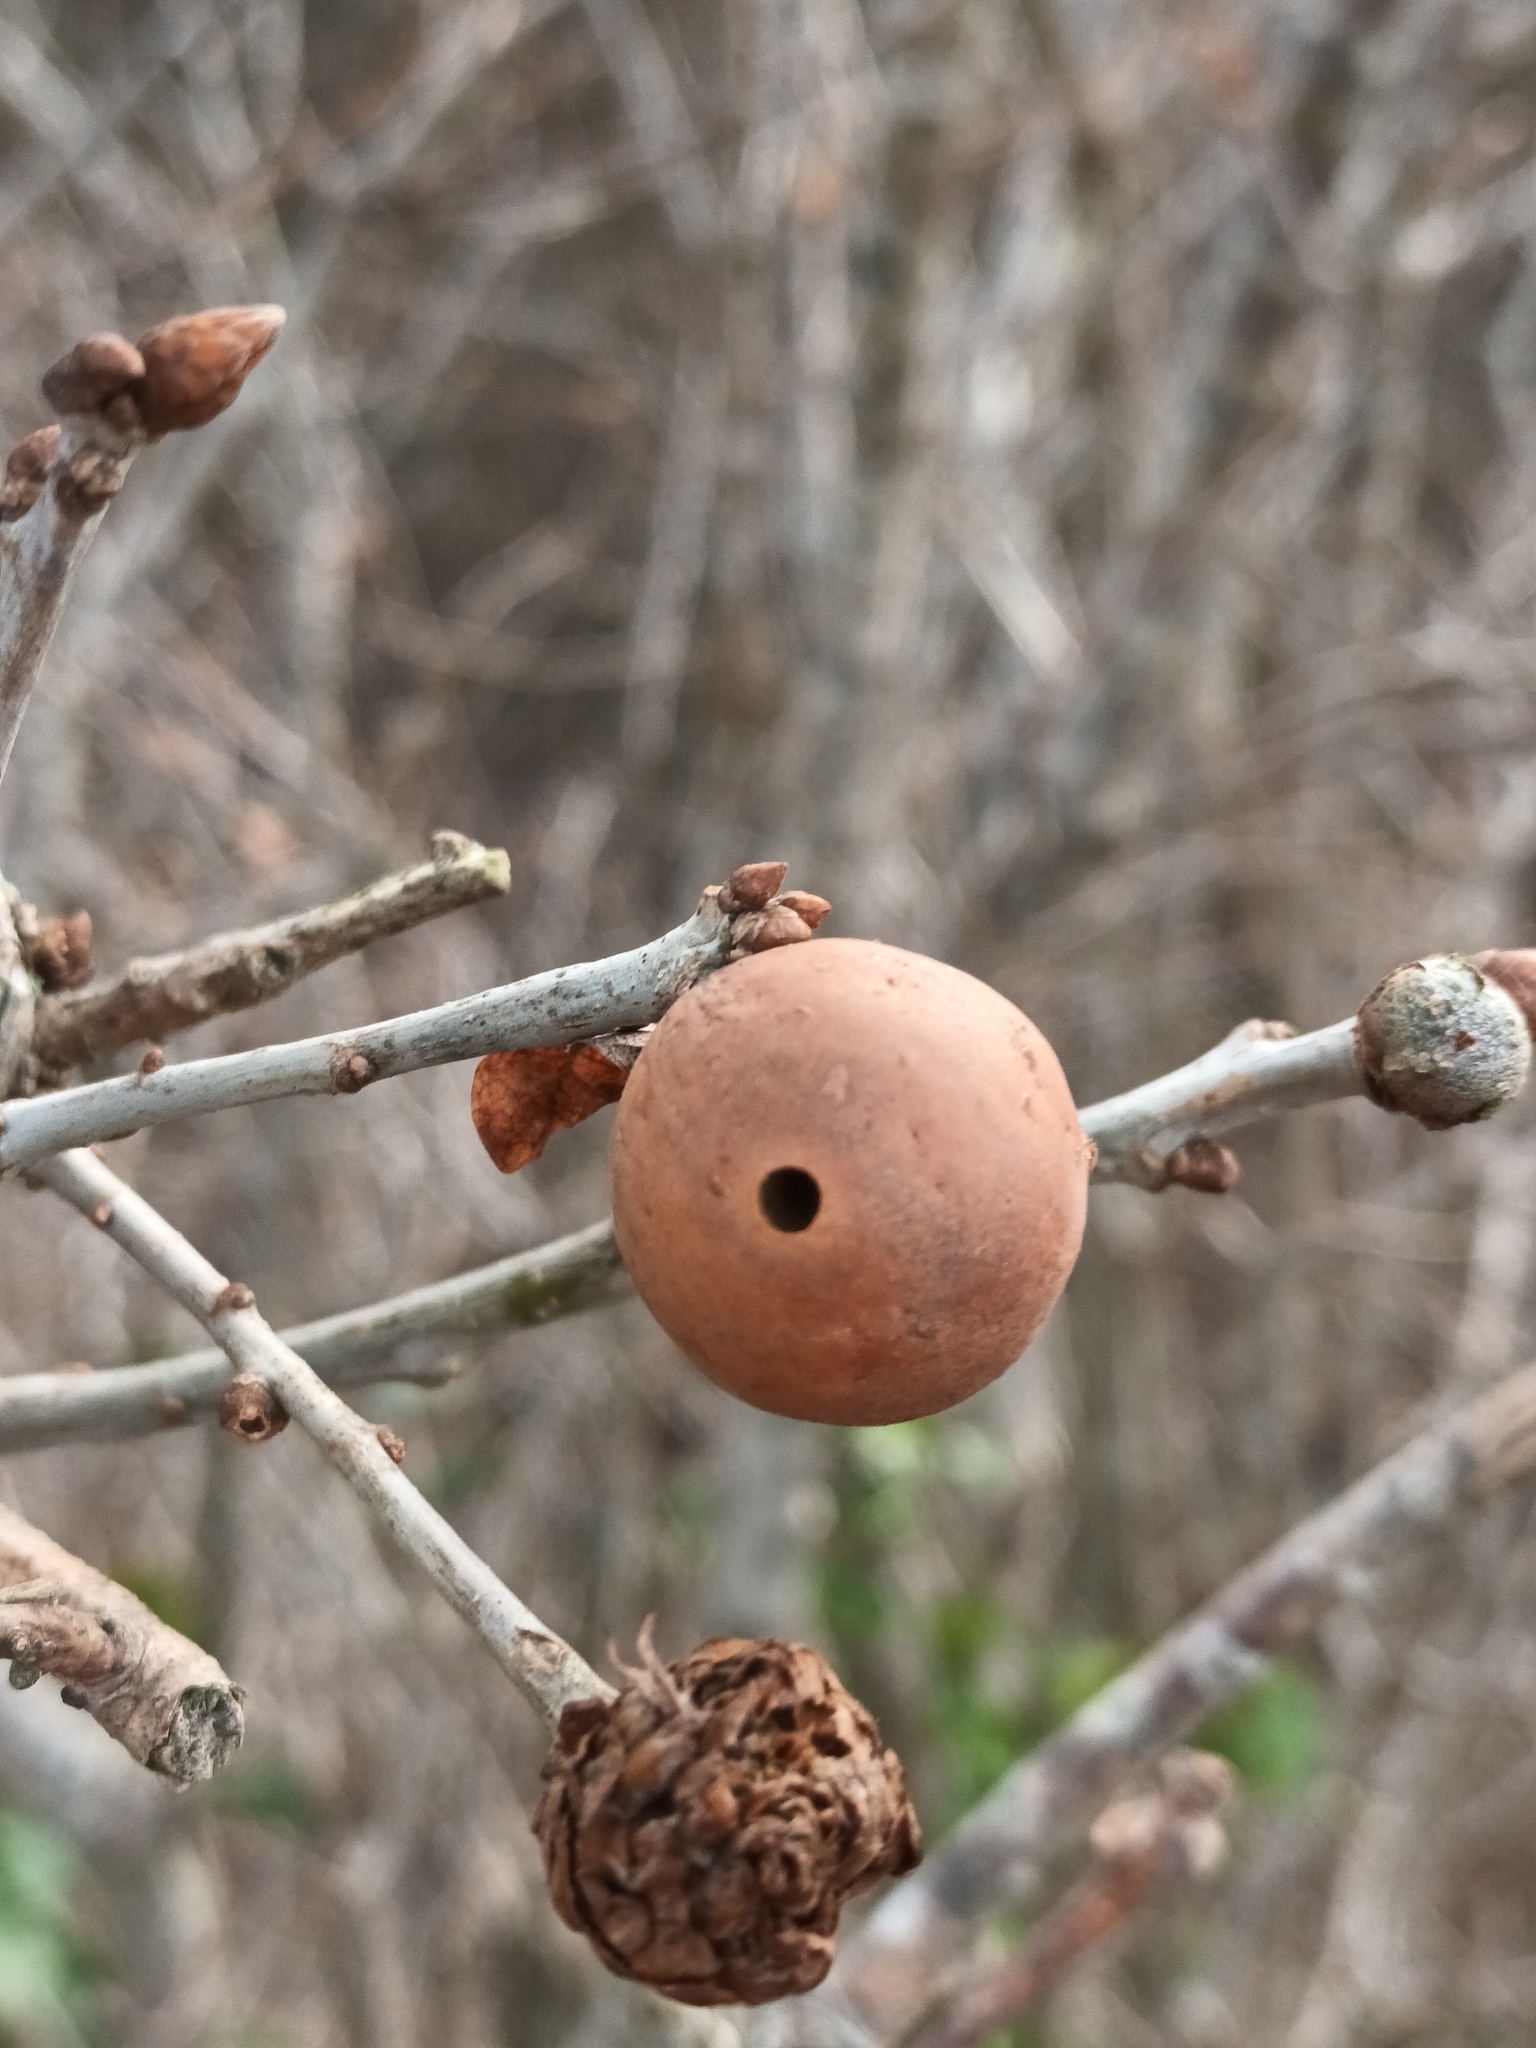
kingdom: Animalia
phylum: Arthropoda
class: Insecta
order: Hymenoptera
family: Cynipidae
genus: Andricus
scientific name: Andricus kollari
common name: Marble gall
